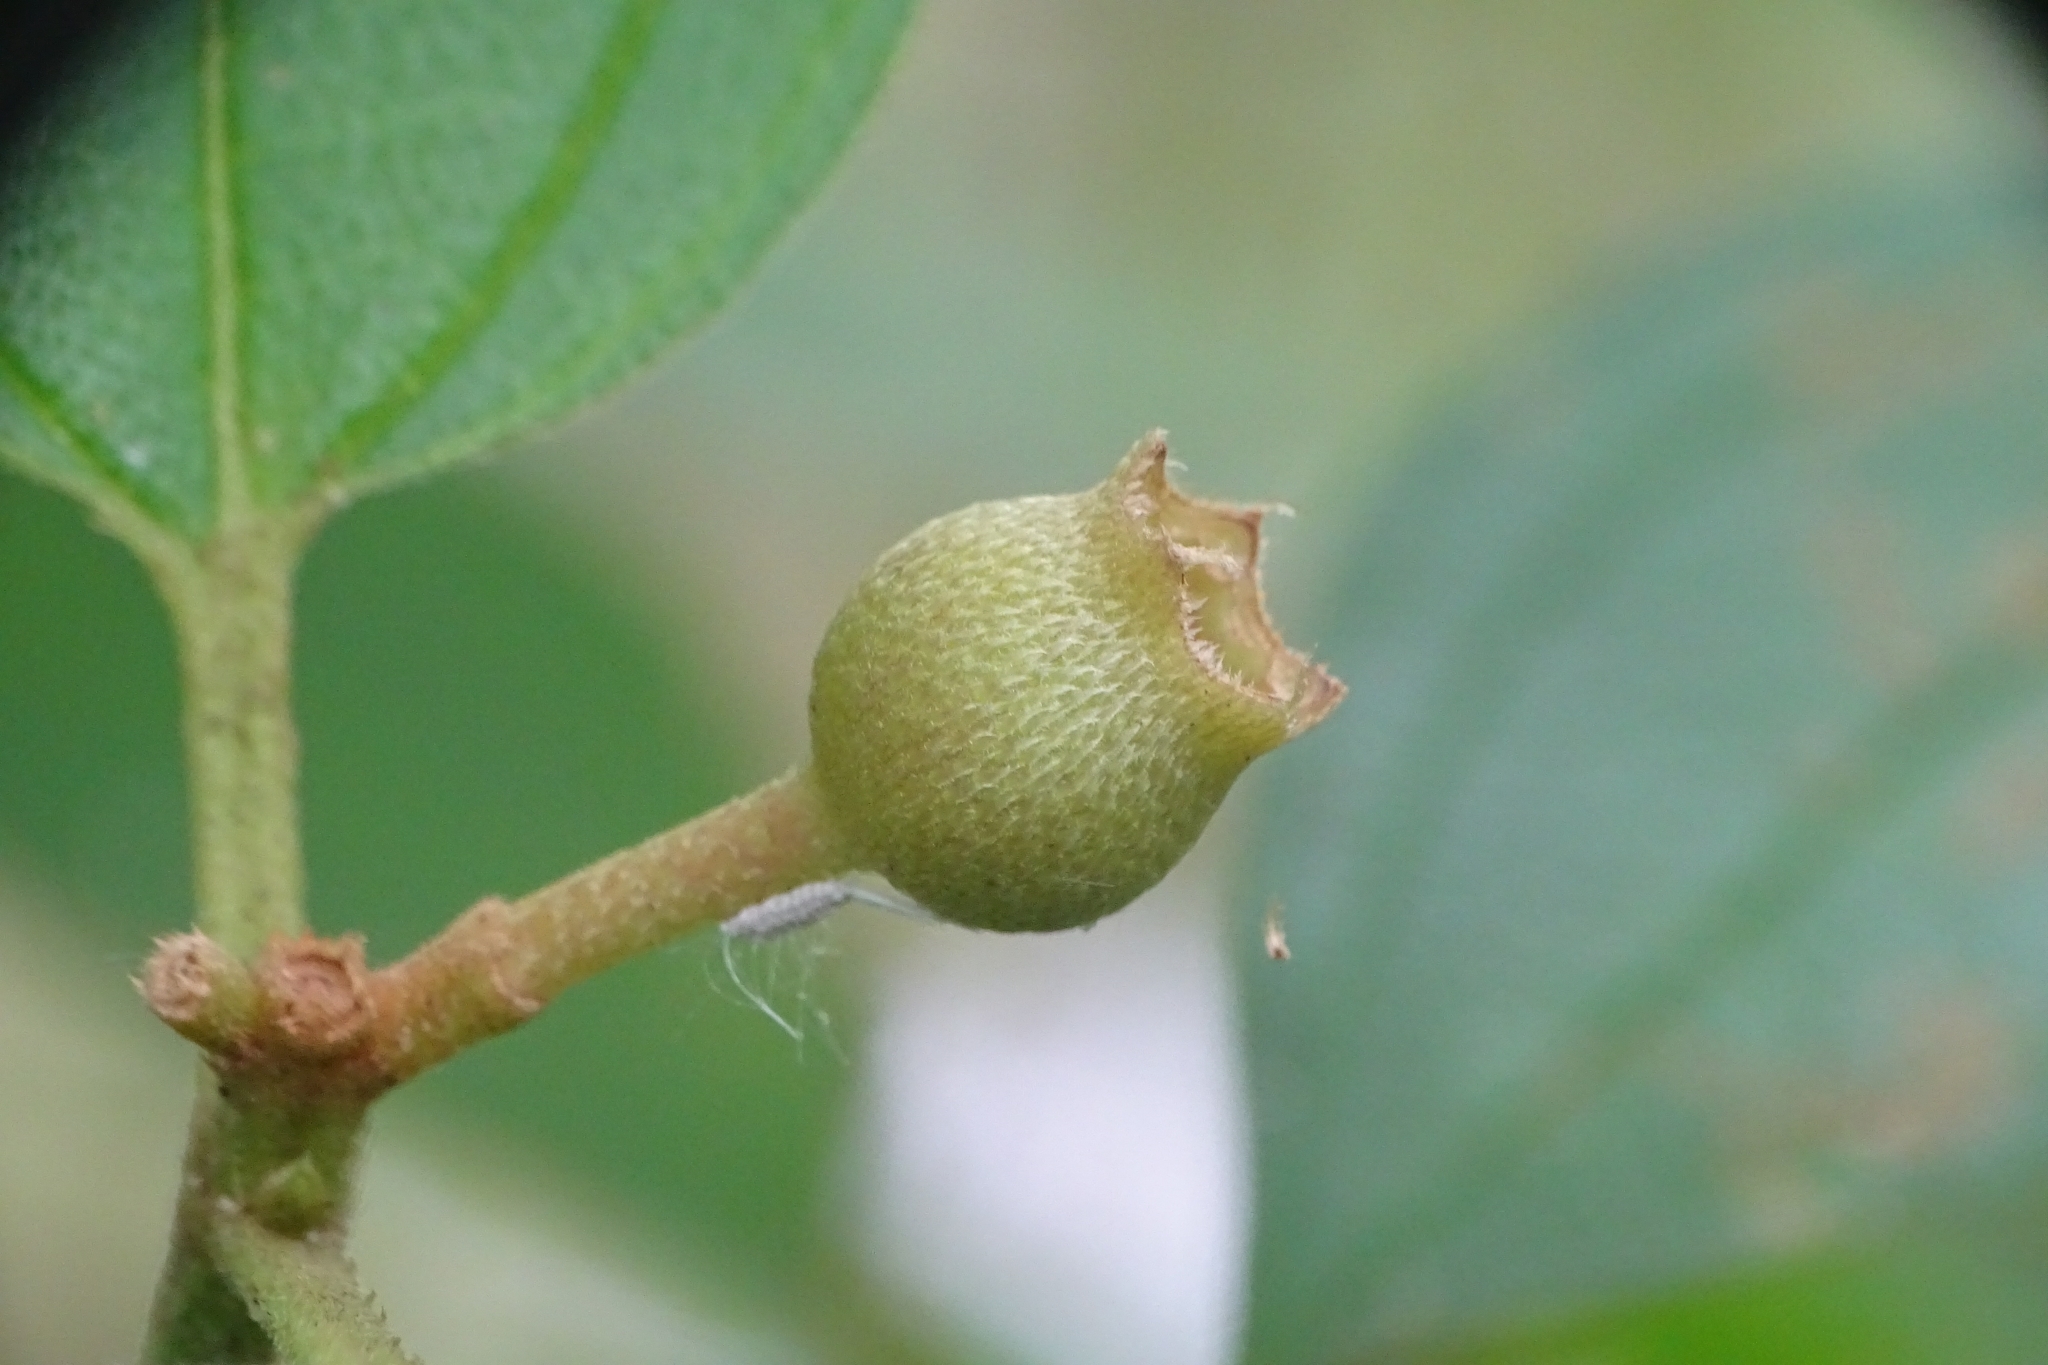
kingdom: Plantae
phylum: Tracheophyta
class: Magnoliopsida
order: Myrtales
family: Melastomataceae
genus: Melastoma
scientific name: Melastoma malabathricum
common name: Indian-rhododendron
